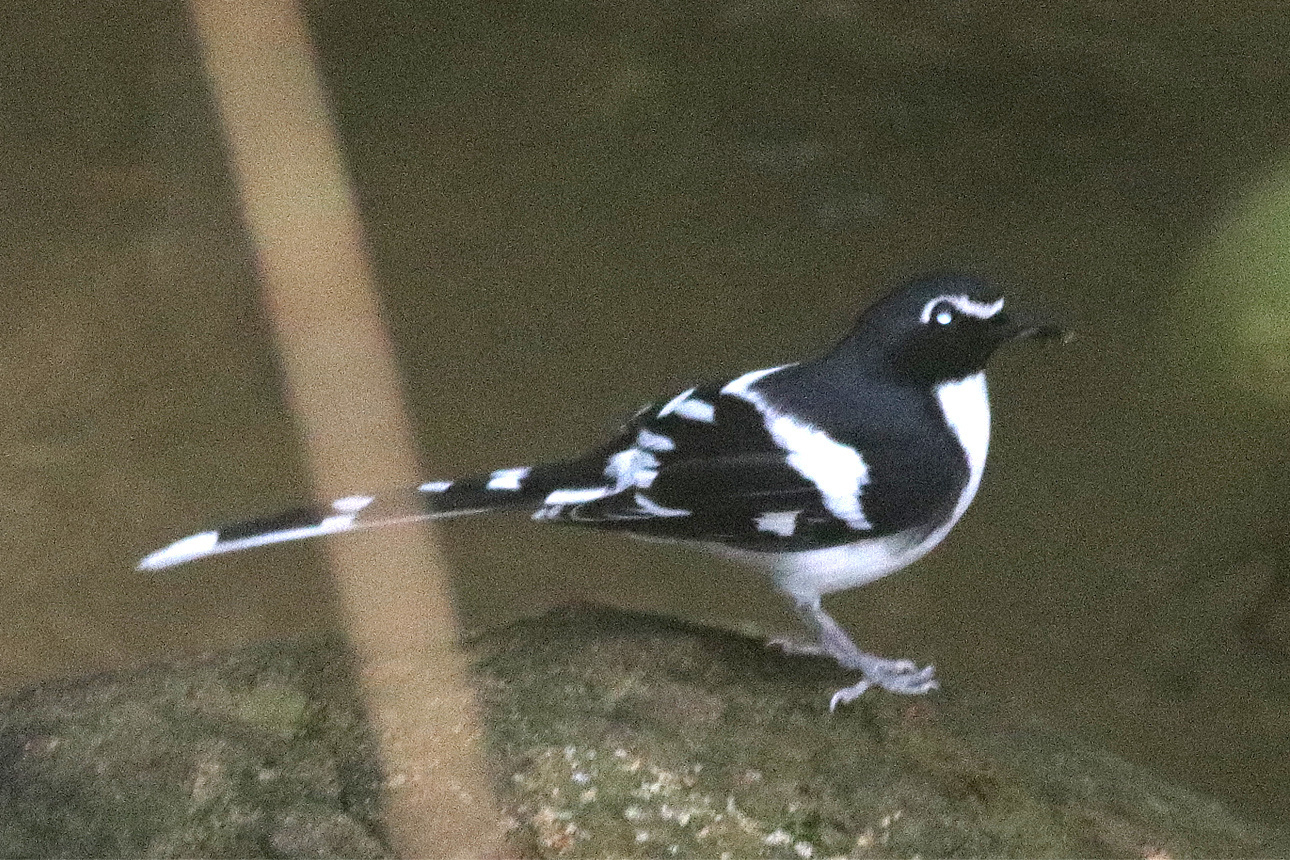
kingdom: Animalia
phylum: Chordata
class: Aves
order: Passeriformes
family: Muscicapidae
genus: Enicurus
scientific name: Enicurus schistaceus
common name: Slaty-backed forktail
